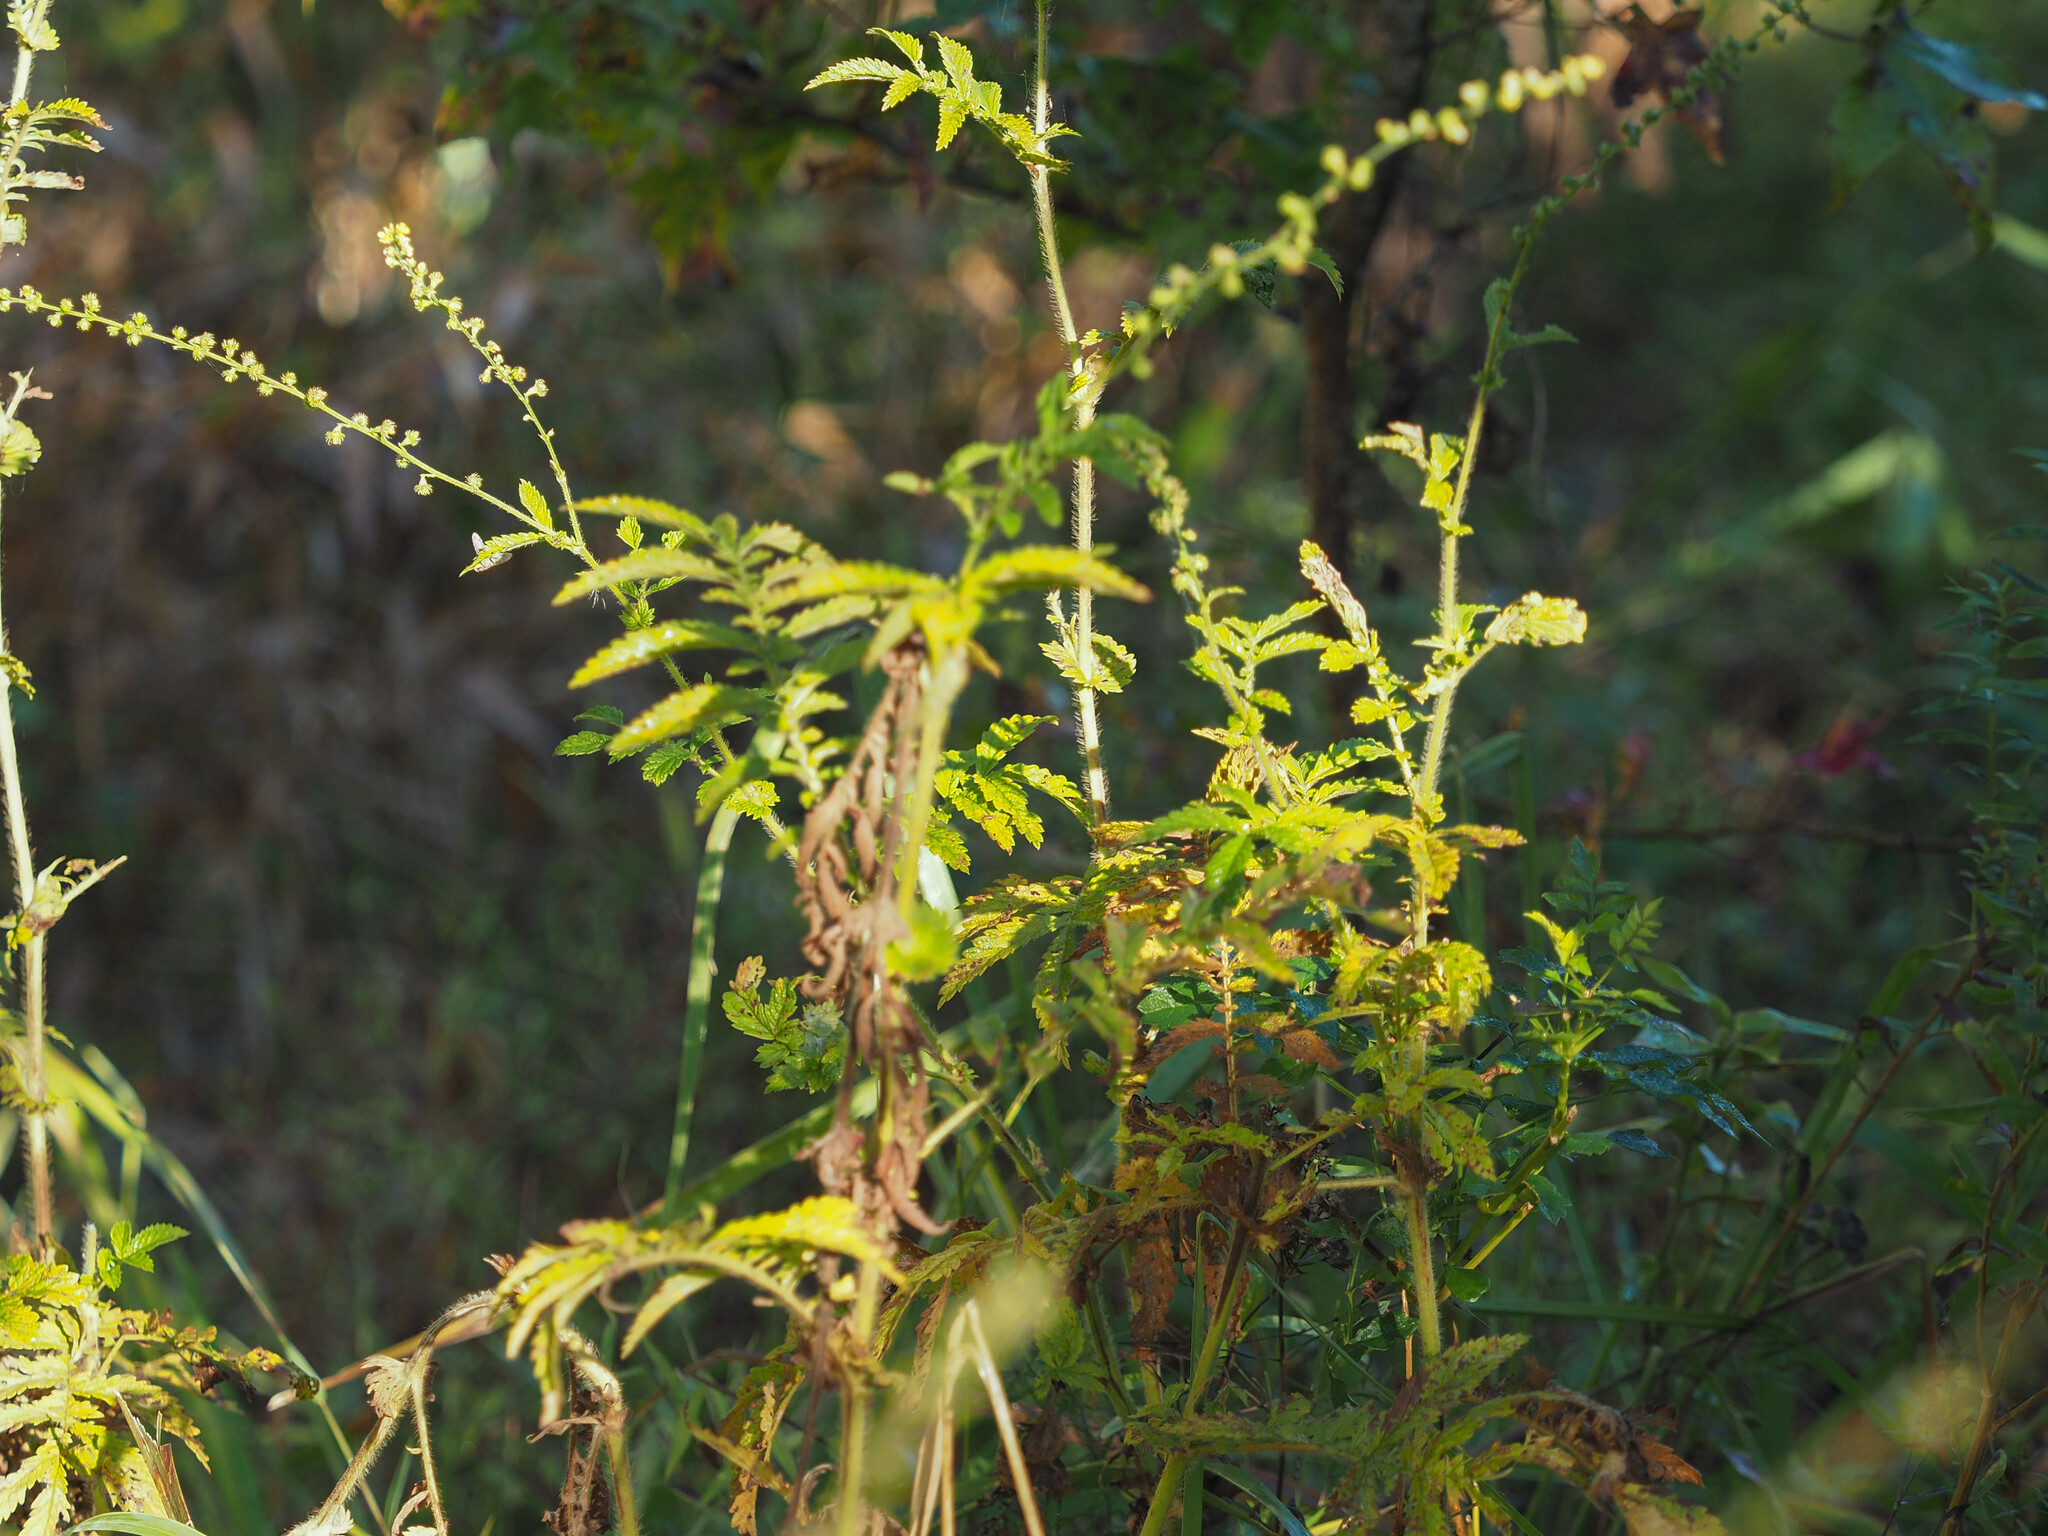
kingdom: Plantae
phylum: Tracheophyta
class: Magnoliopsida
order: Rosales
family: Rosaceae
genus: Agrimonia
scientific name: Agrimonia parviflora
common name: Harvest-lice
